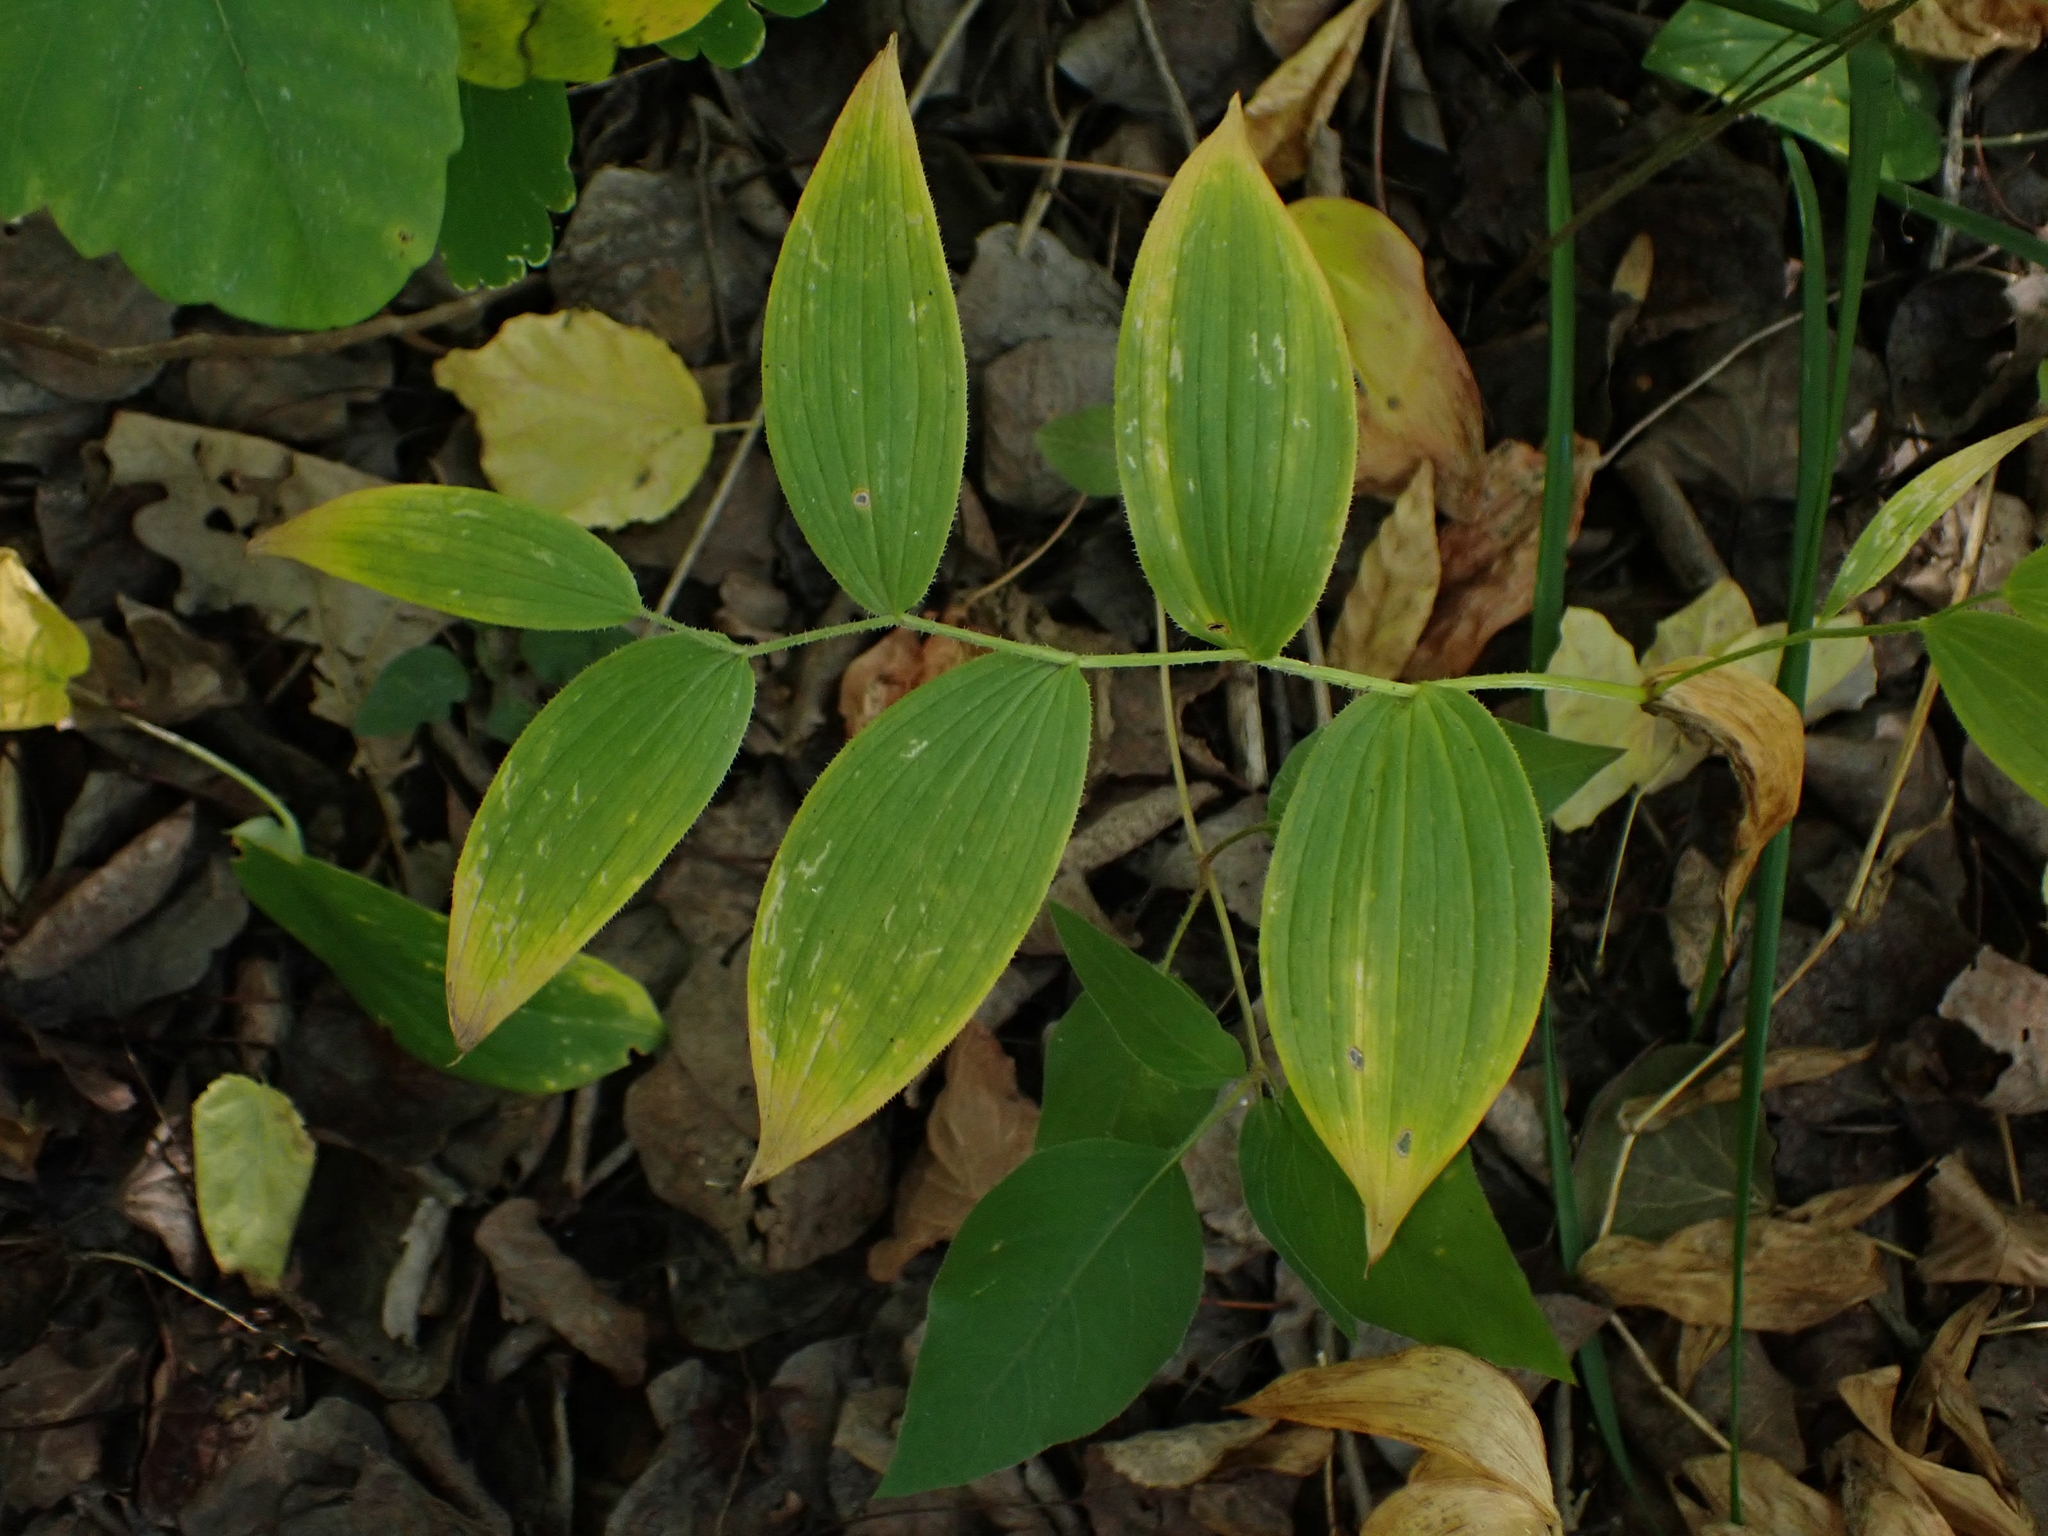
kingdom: Plantae
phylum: Tracheophyta
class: Liliopsida
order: Liliales
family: Liliaceae
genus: Streptopus
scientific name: Streptopus lanceolatus
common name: Rose mandarin
